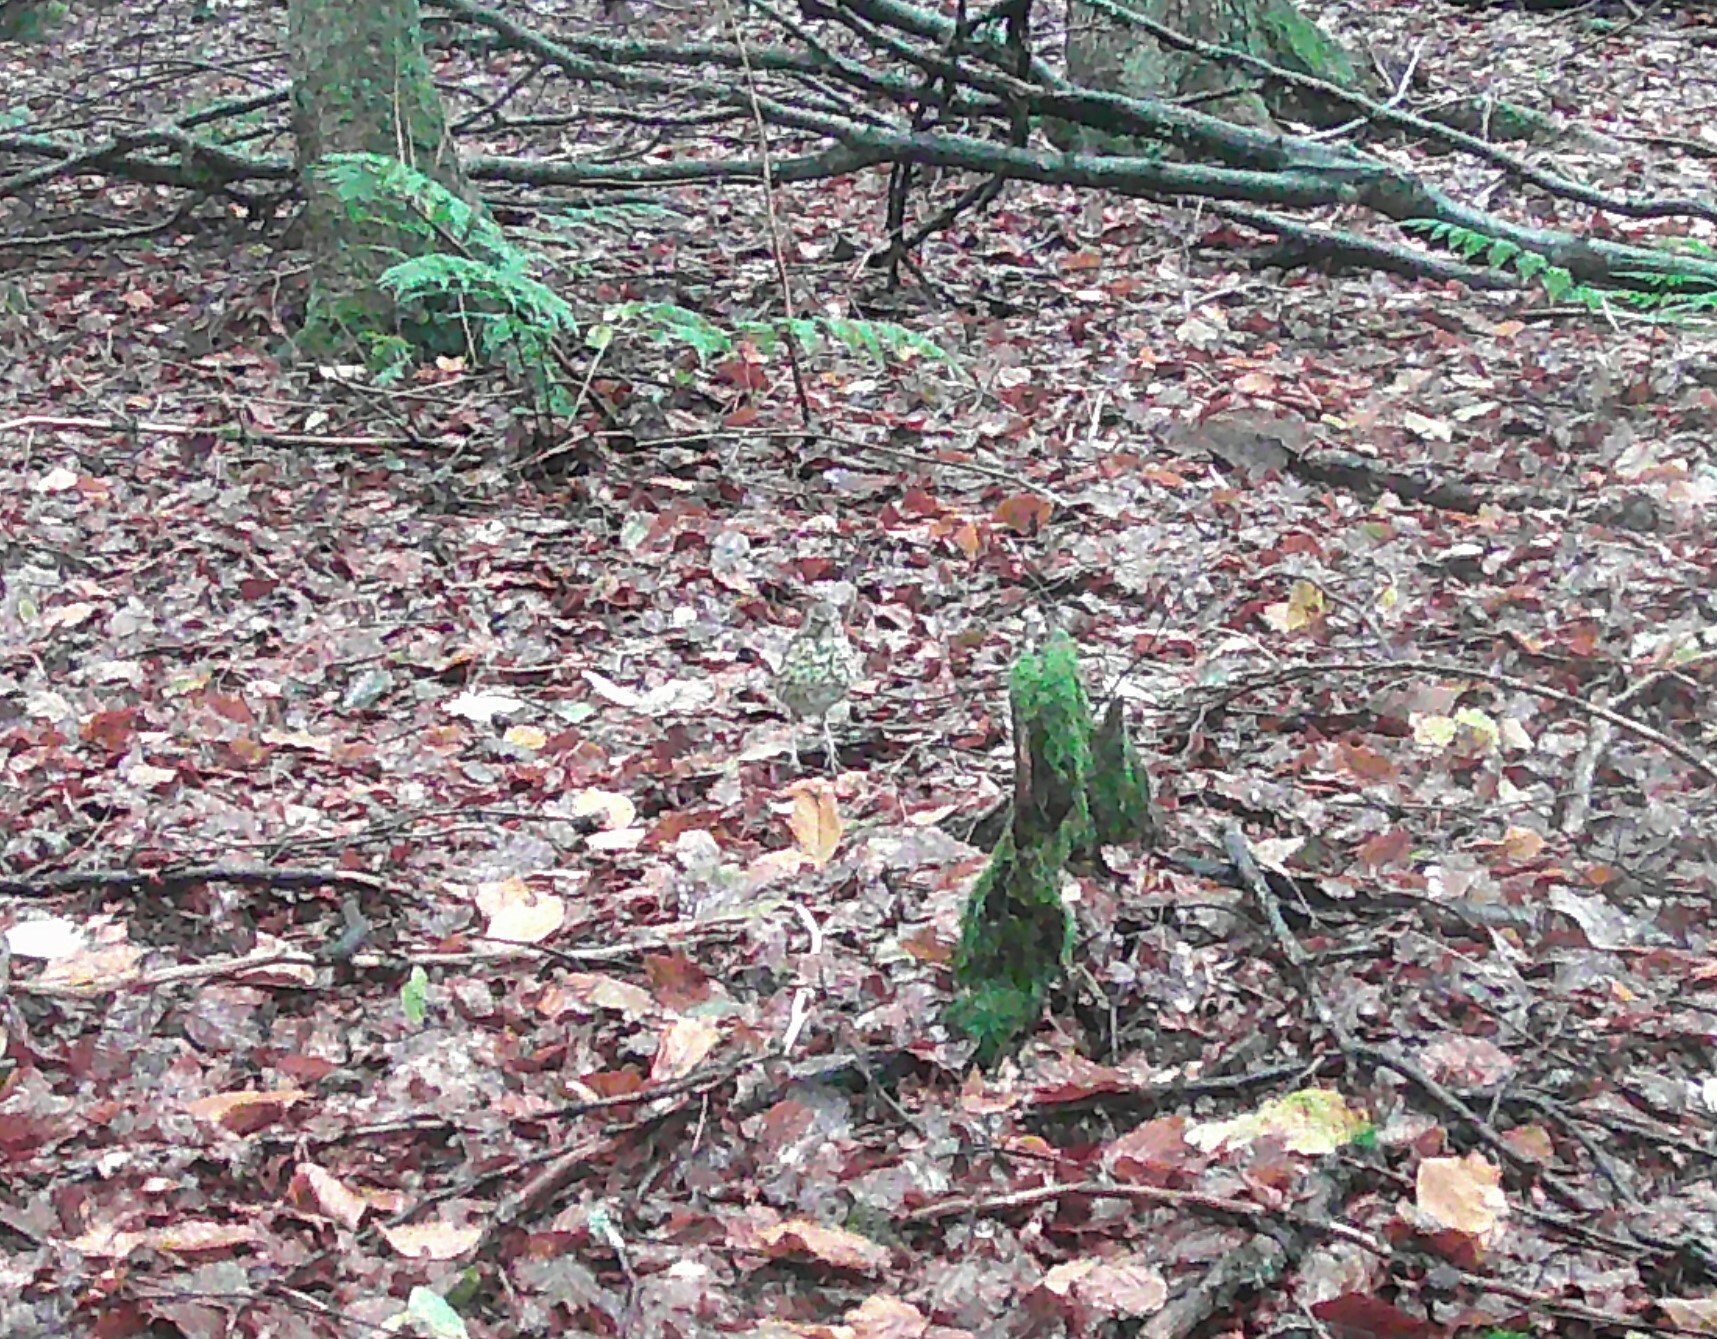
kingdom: Animalia
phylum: Chordata
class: Aves
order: Passeriformes
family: Turdidae
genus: Turdus
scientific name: Turdus philomelos
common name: Song thrush
